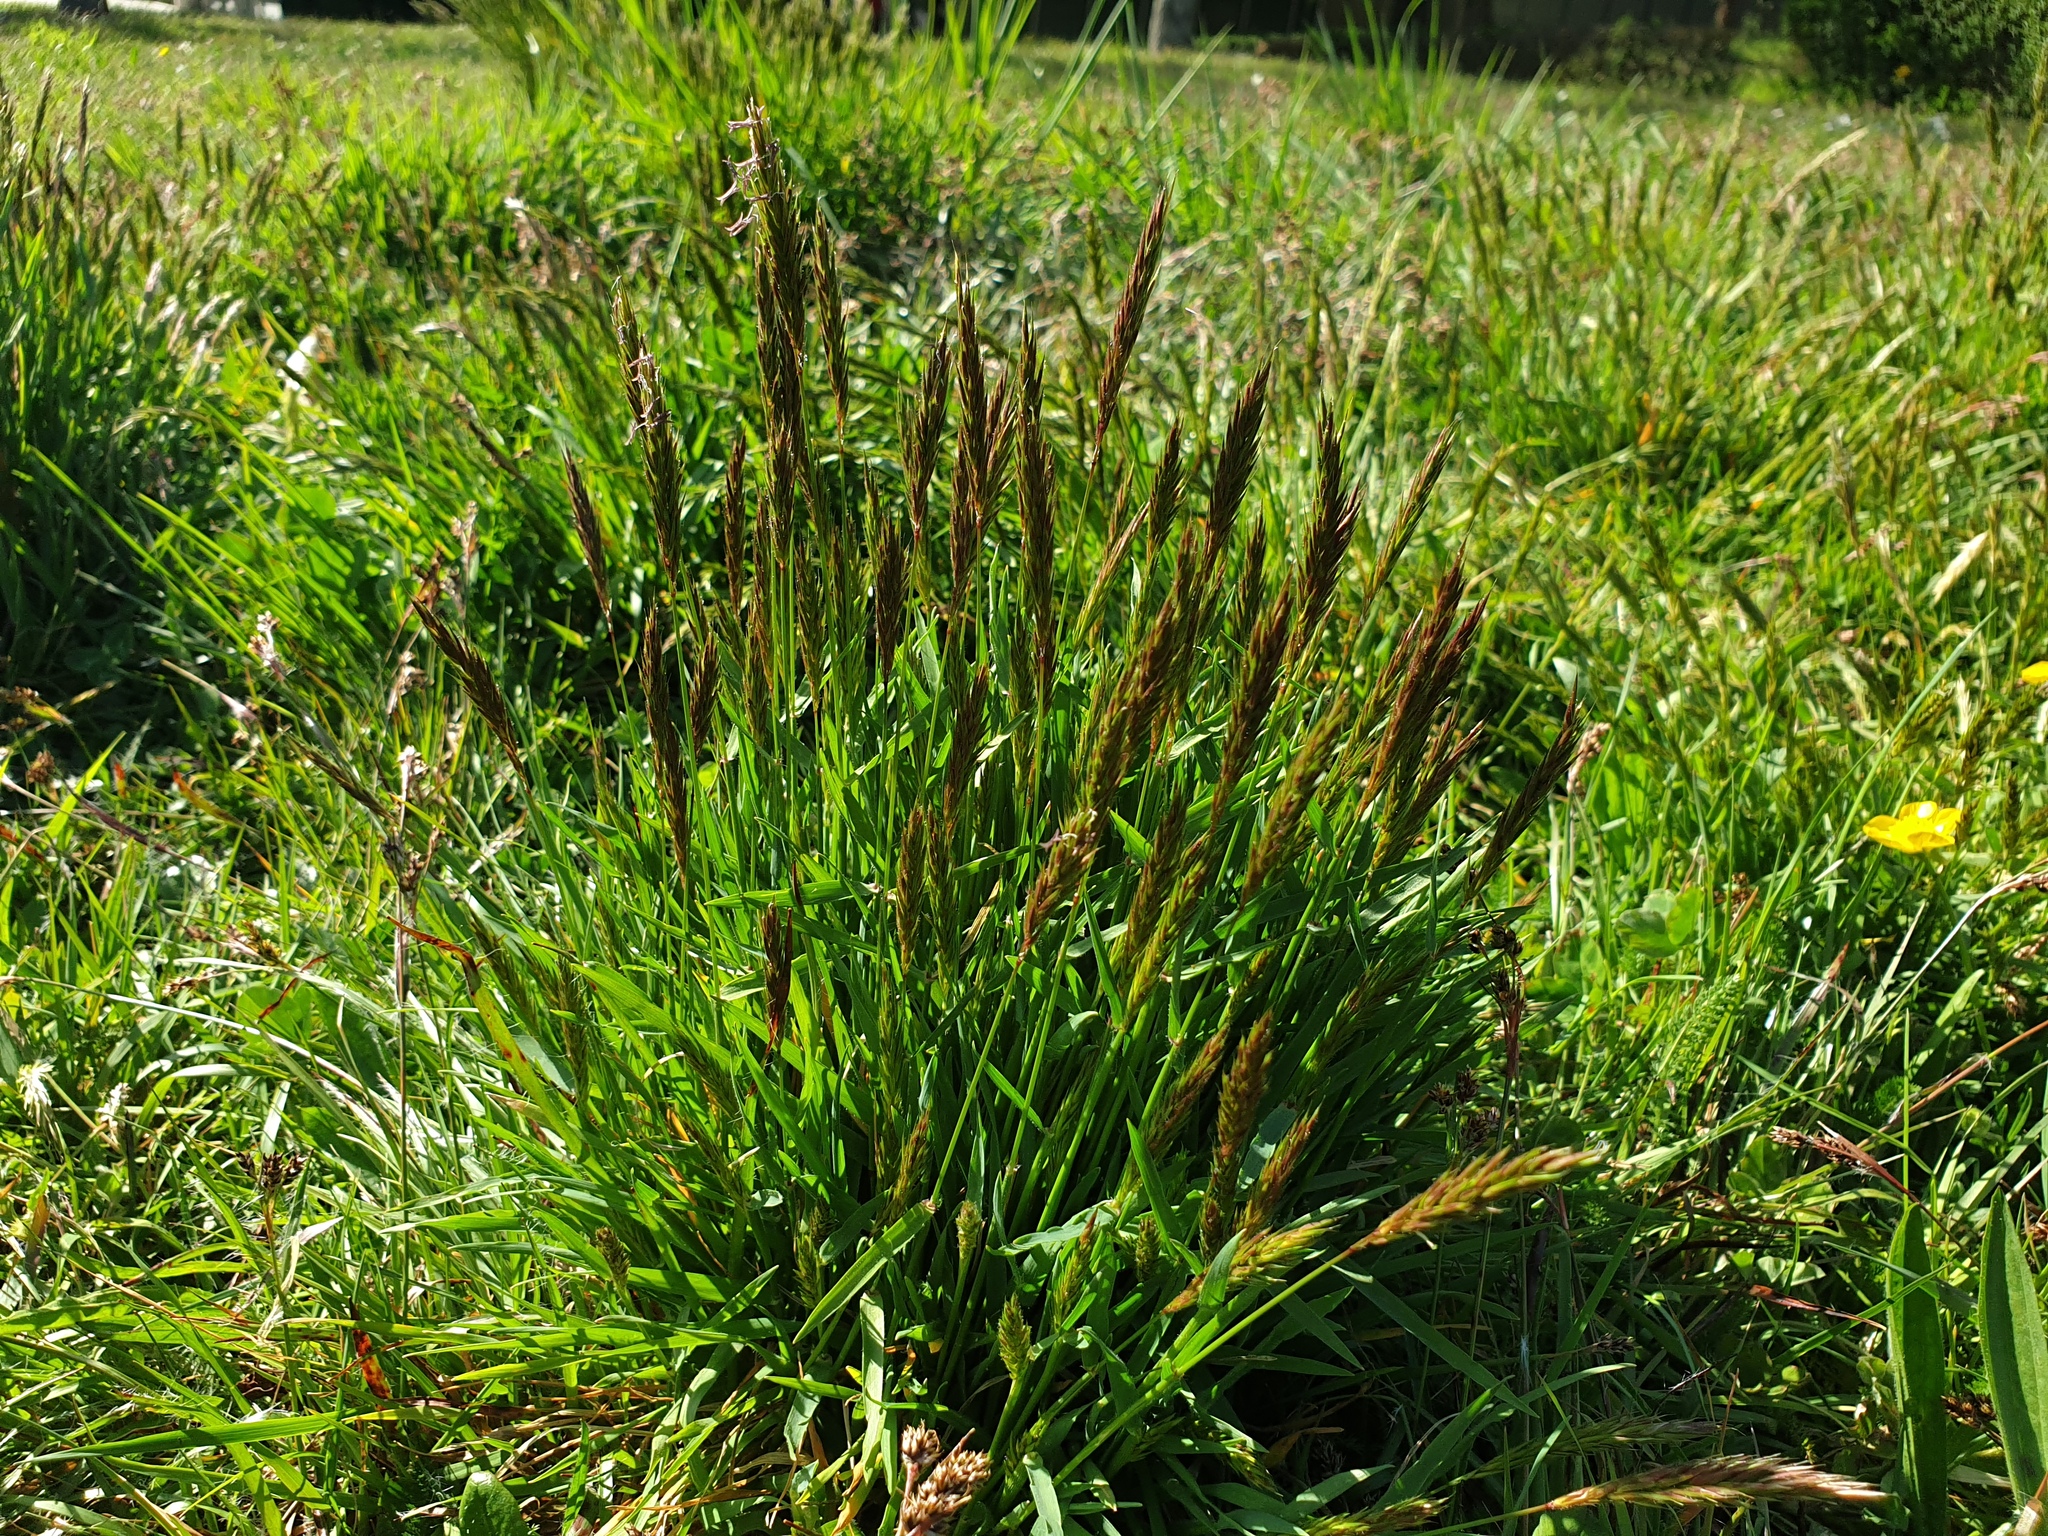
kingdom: Plantae
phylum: Tracheophyta
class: Liliopsida
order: Poales
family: Poaceae
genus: Anthoxanthum
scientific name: Anthoxanthum odoratum
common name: Sweet vernalgrass
